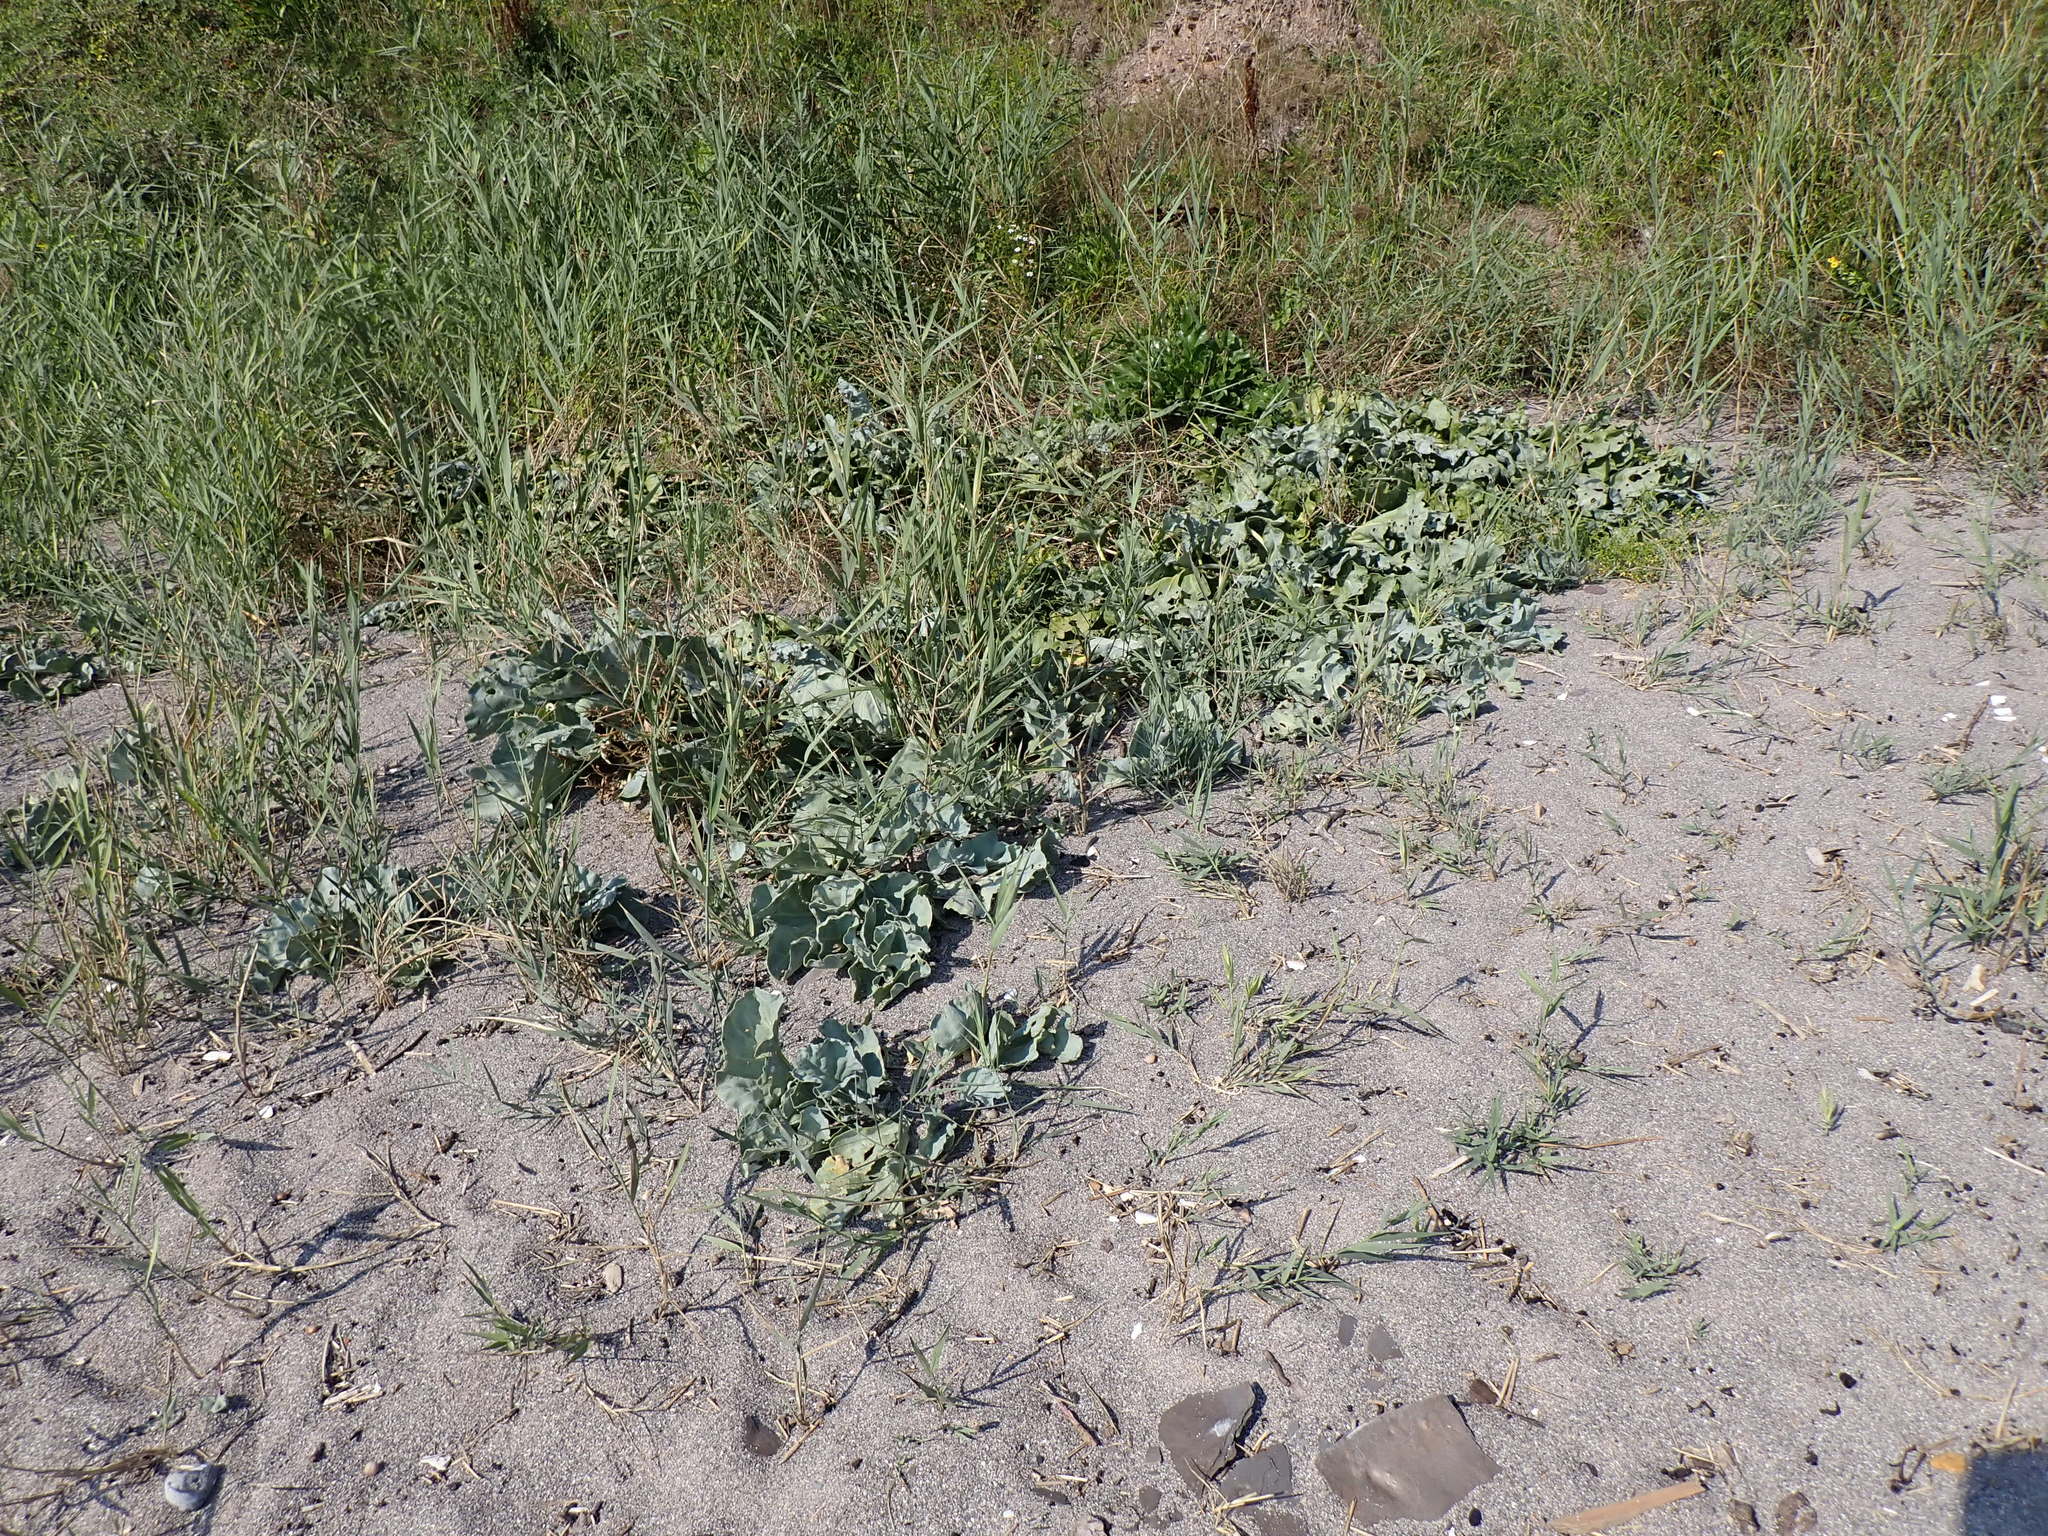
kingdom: Plantae
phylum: Tracheophyta
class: Magnoliopsida
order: Brassicales
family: Brassicaceae
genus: Crambe
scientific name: Crambe maritima
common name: Sea-kale
